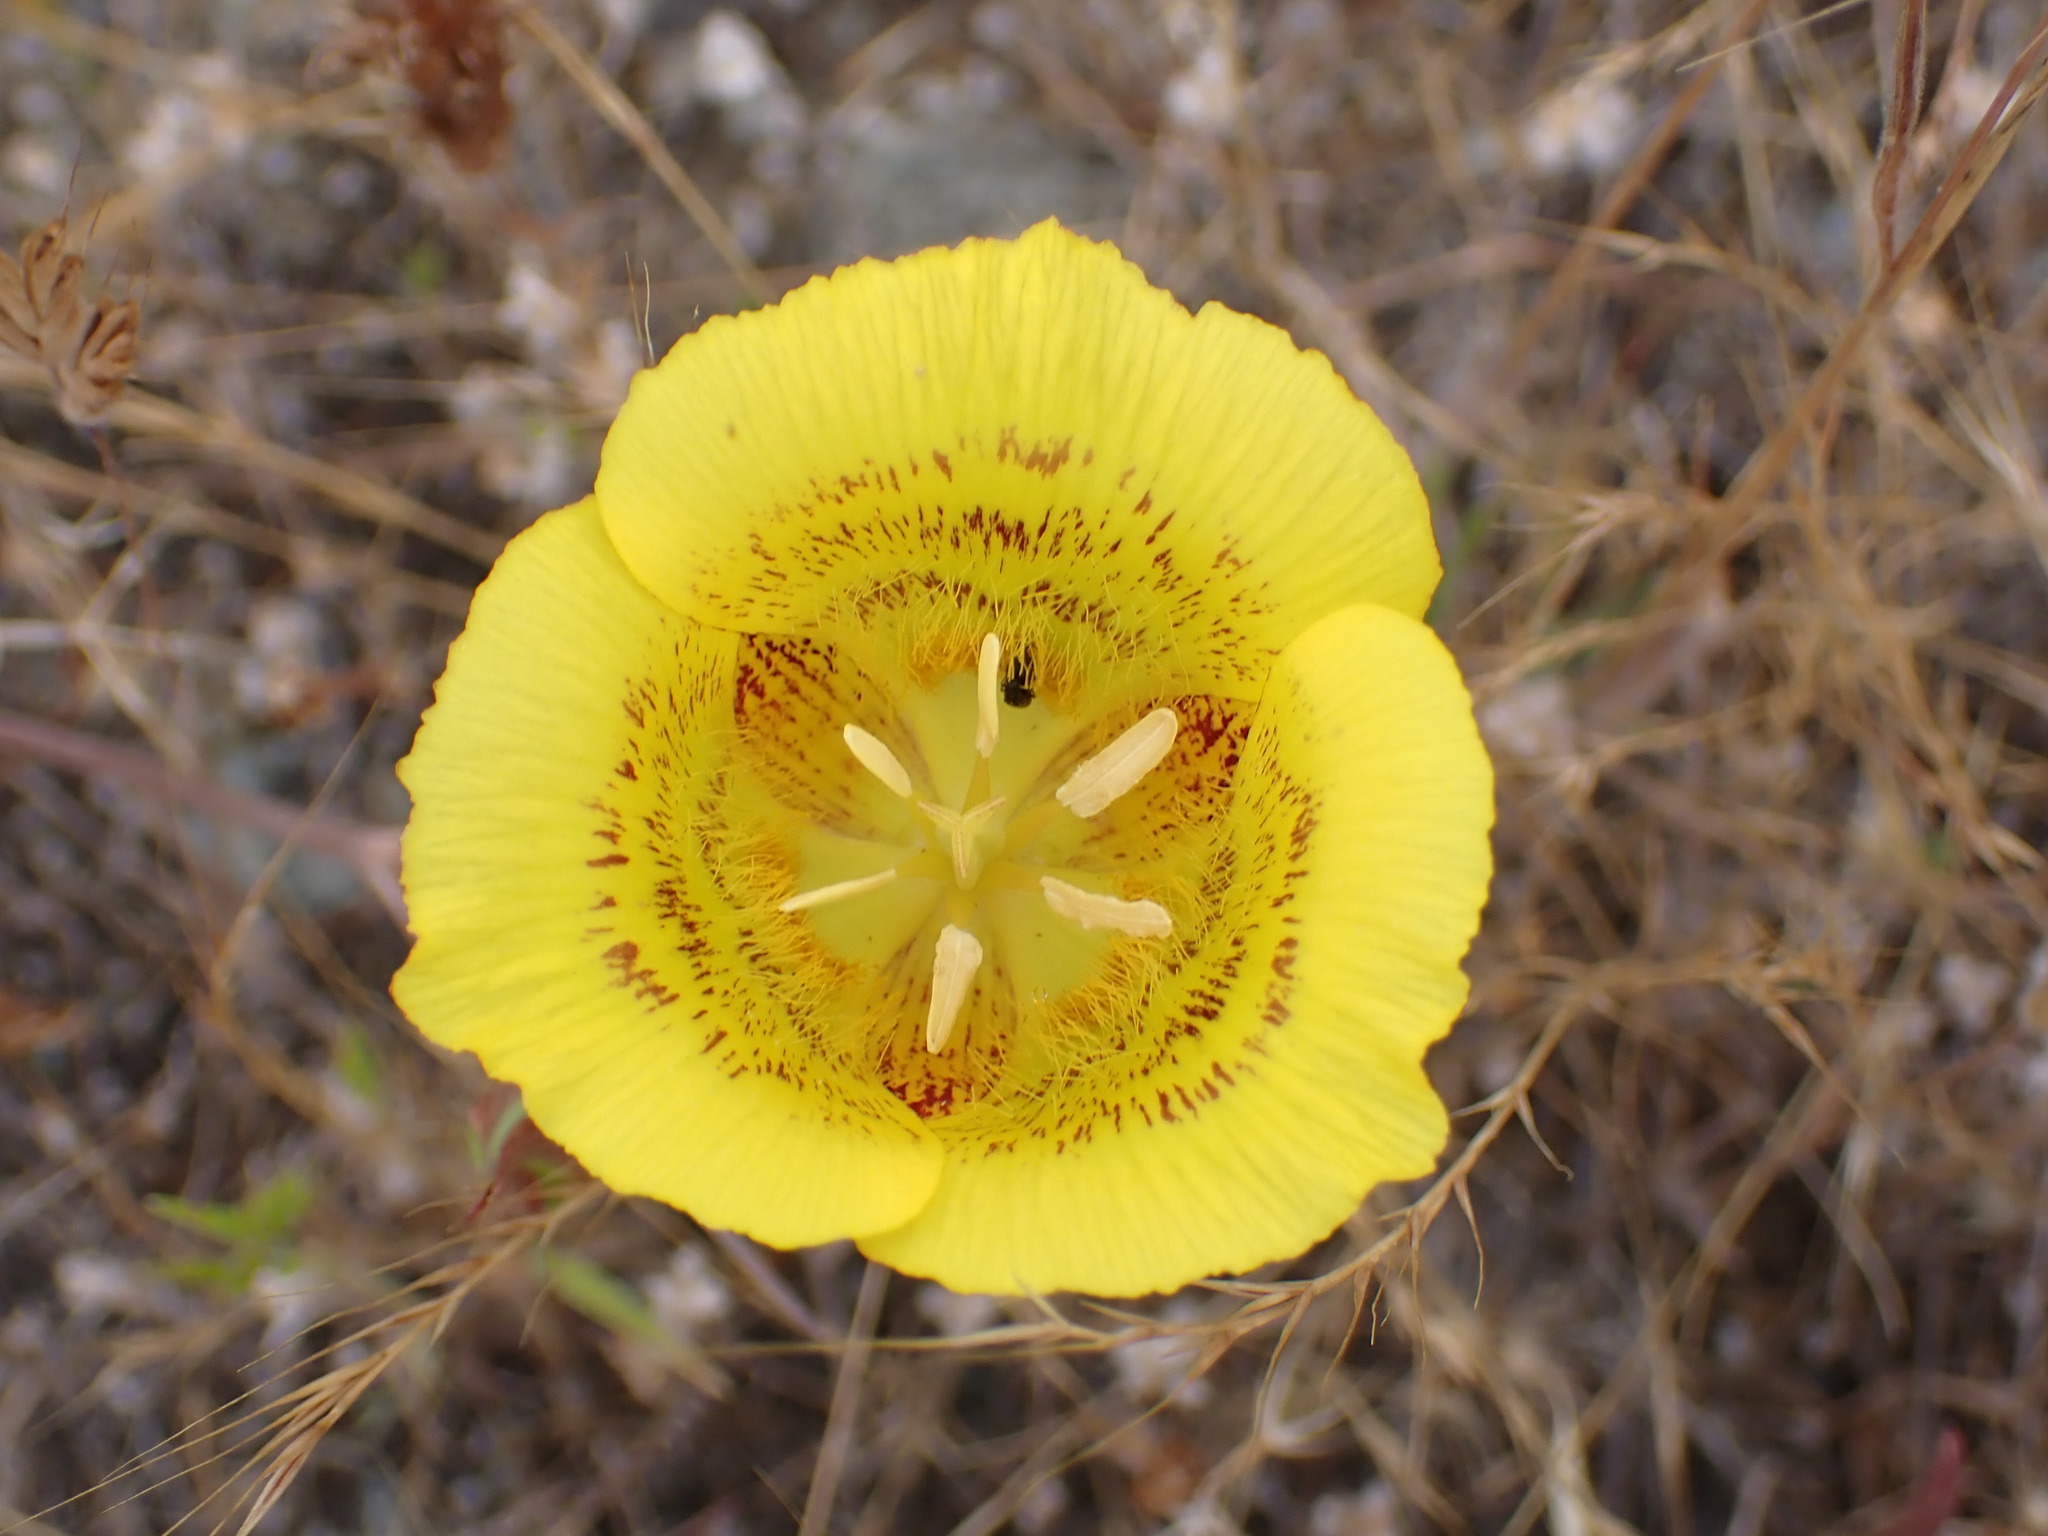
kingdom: Plantae
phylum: Tracheophyta
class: Liliopsida
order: Liliales
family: Liliaceae
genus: Calochortus
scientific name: Calochortus luteus
